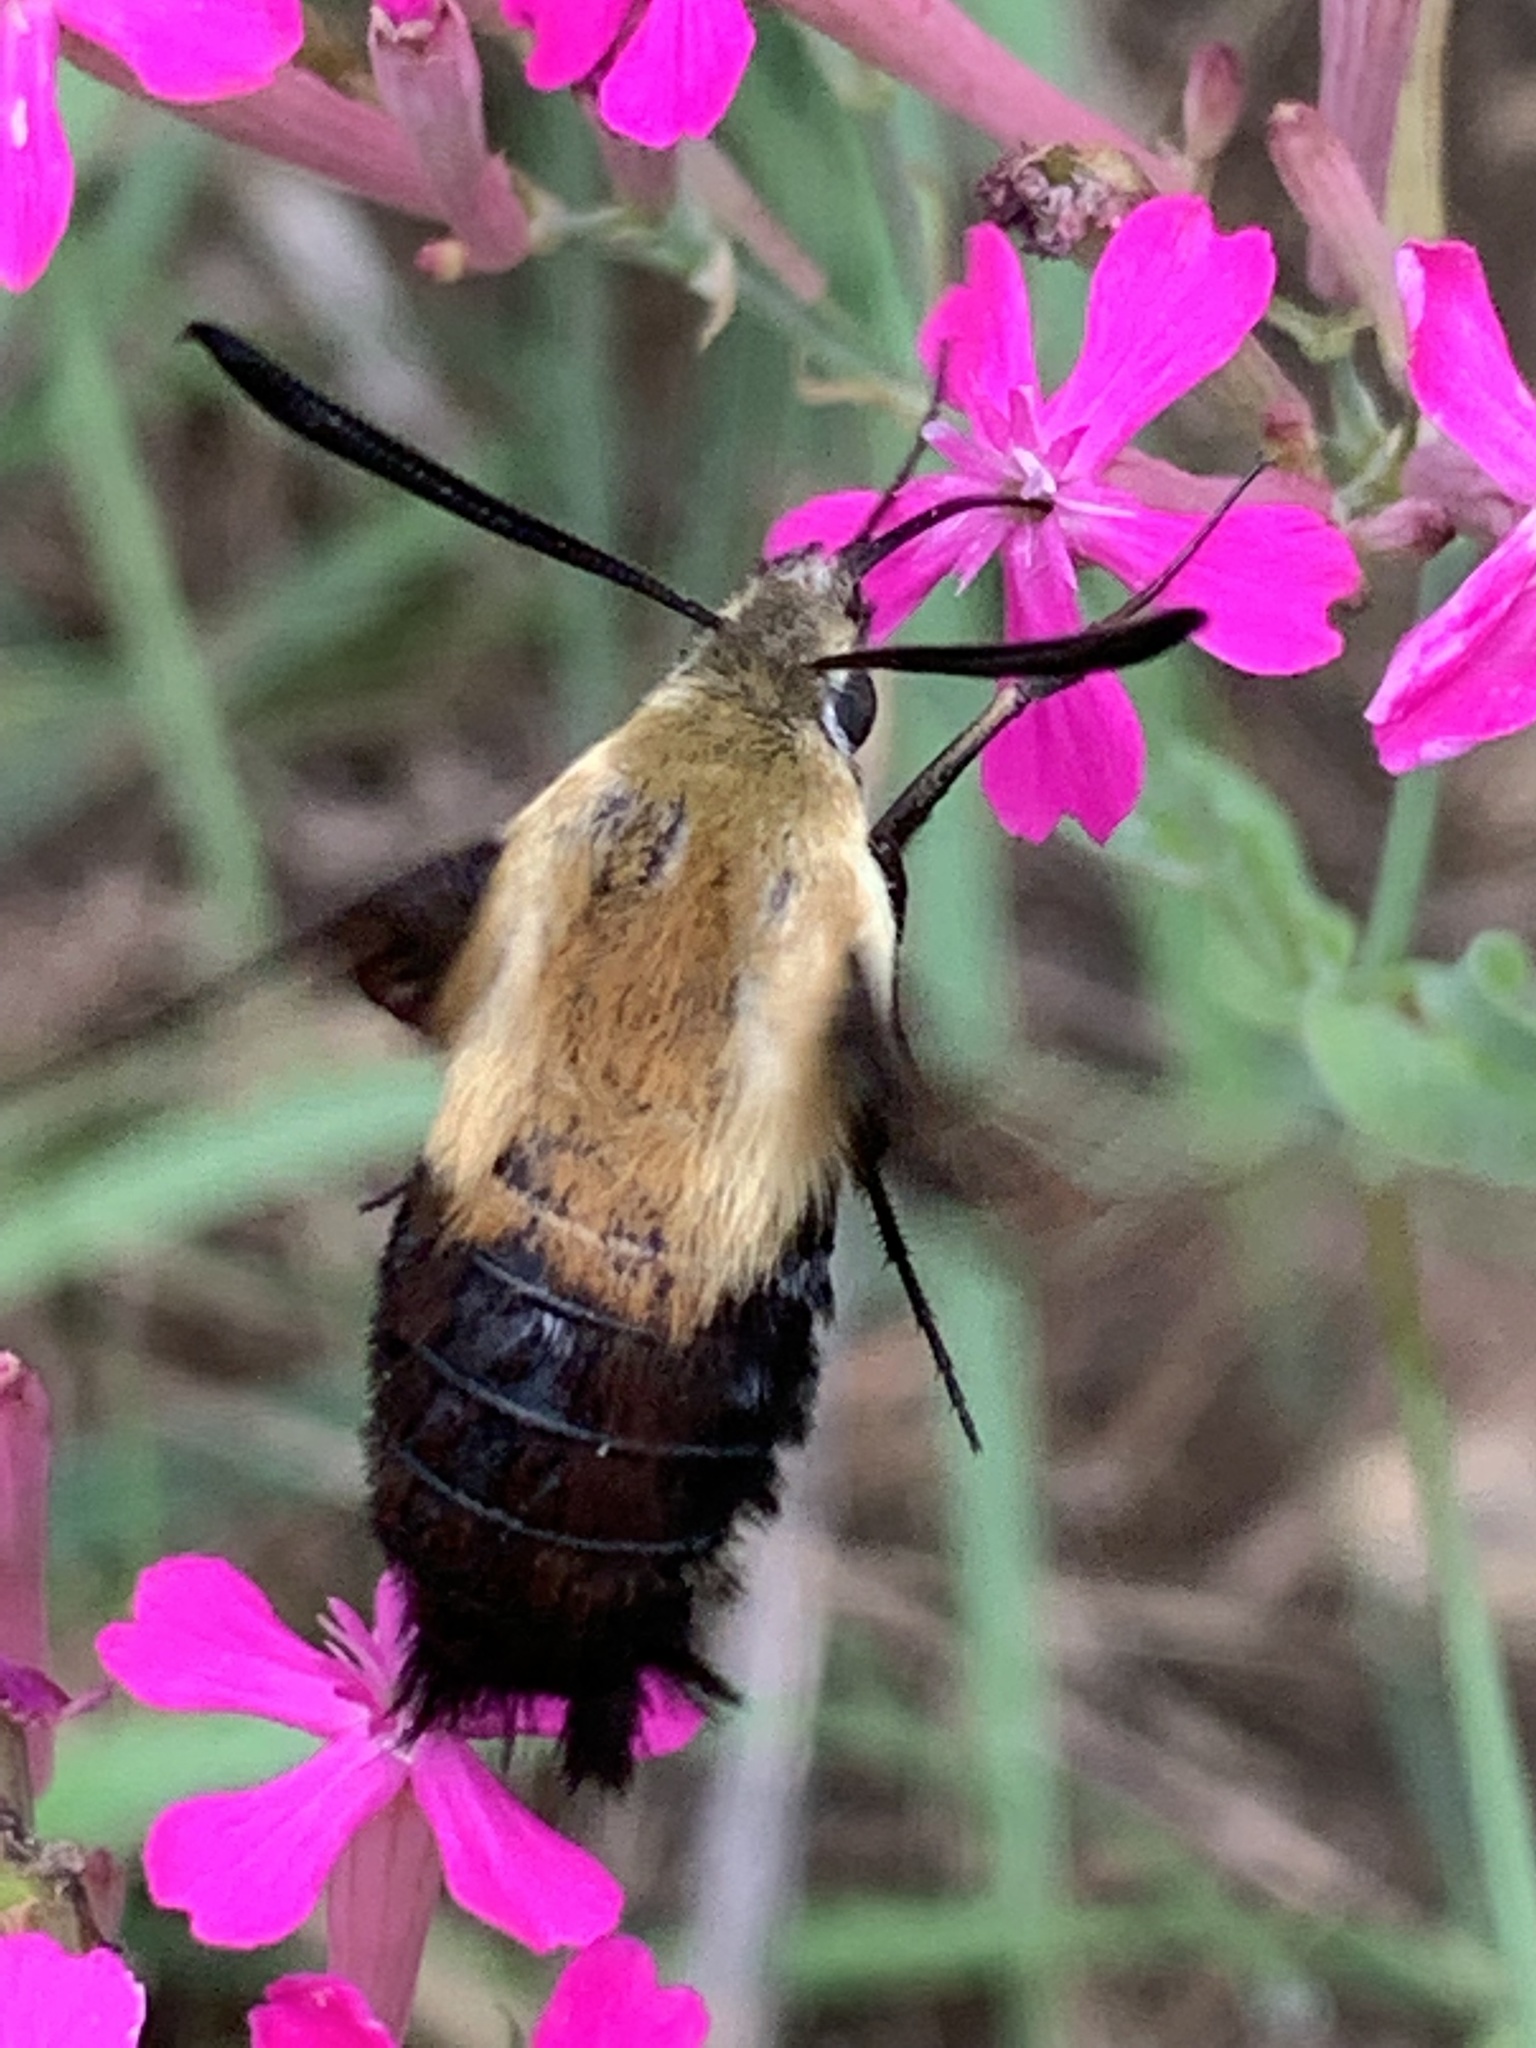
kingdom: Animalia
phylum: Arthropoda
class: Insecta
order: Lepidoptera
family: Sphingidae
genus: Hemaris
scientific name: Hemaris diffinis
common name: Bumblebee moth
